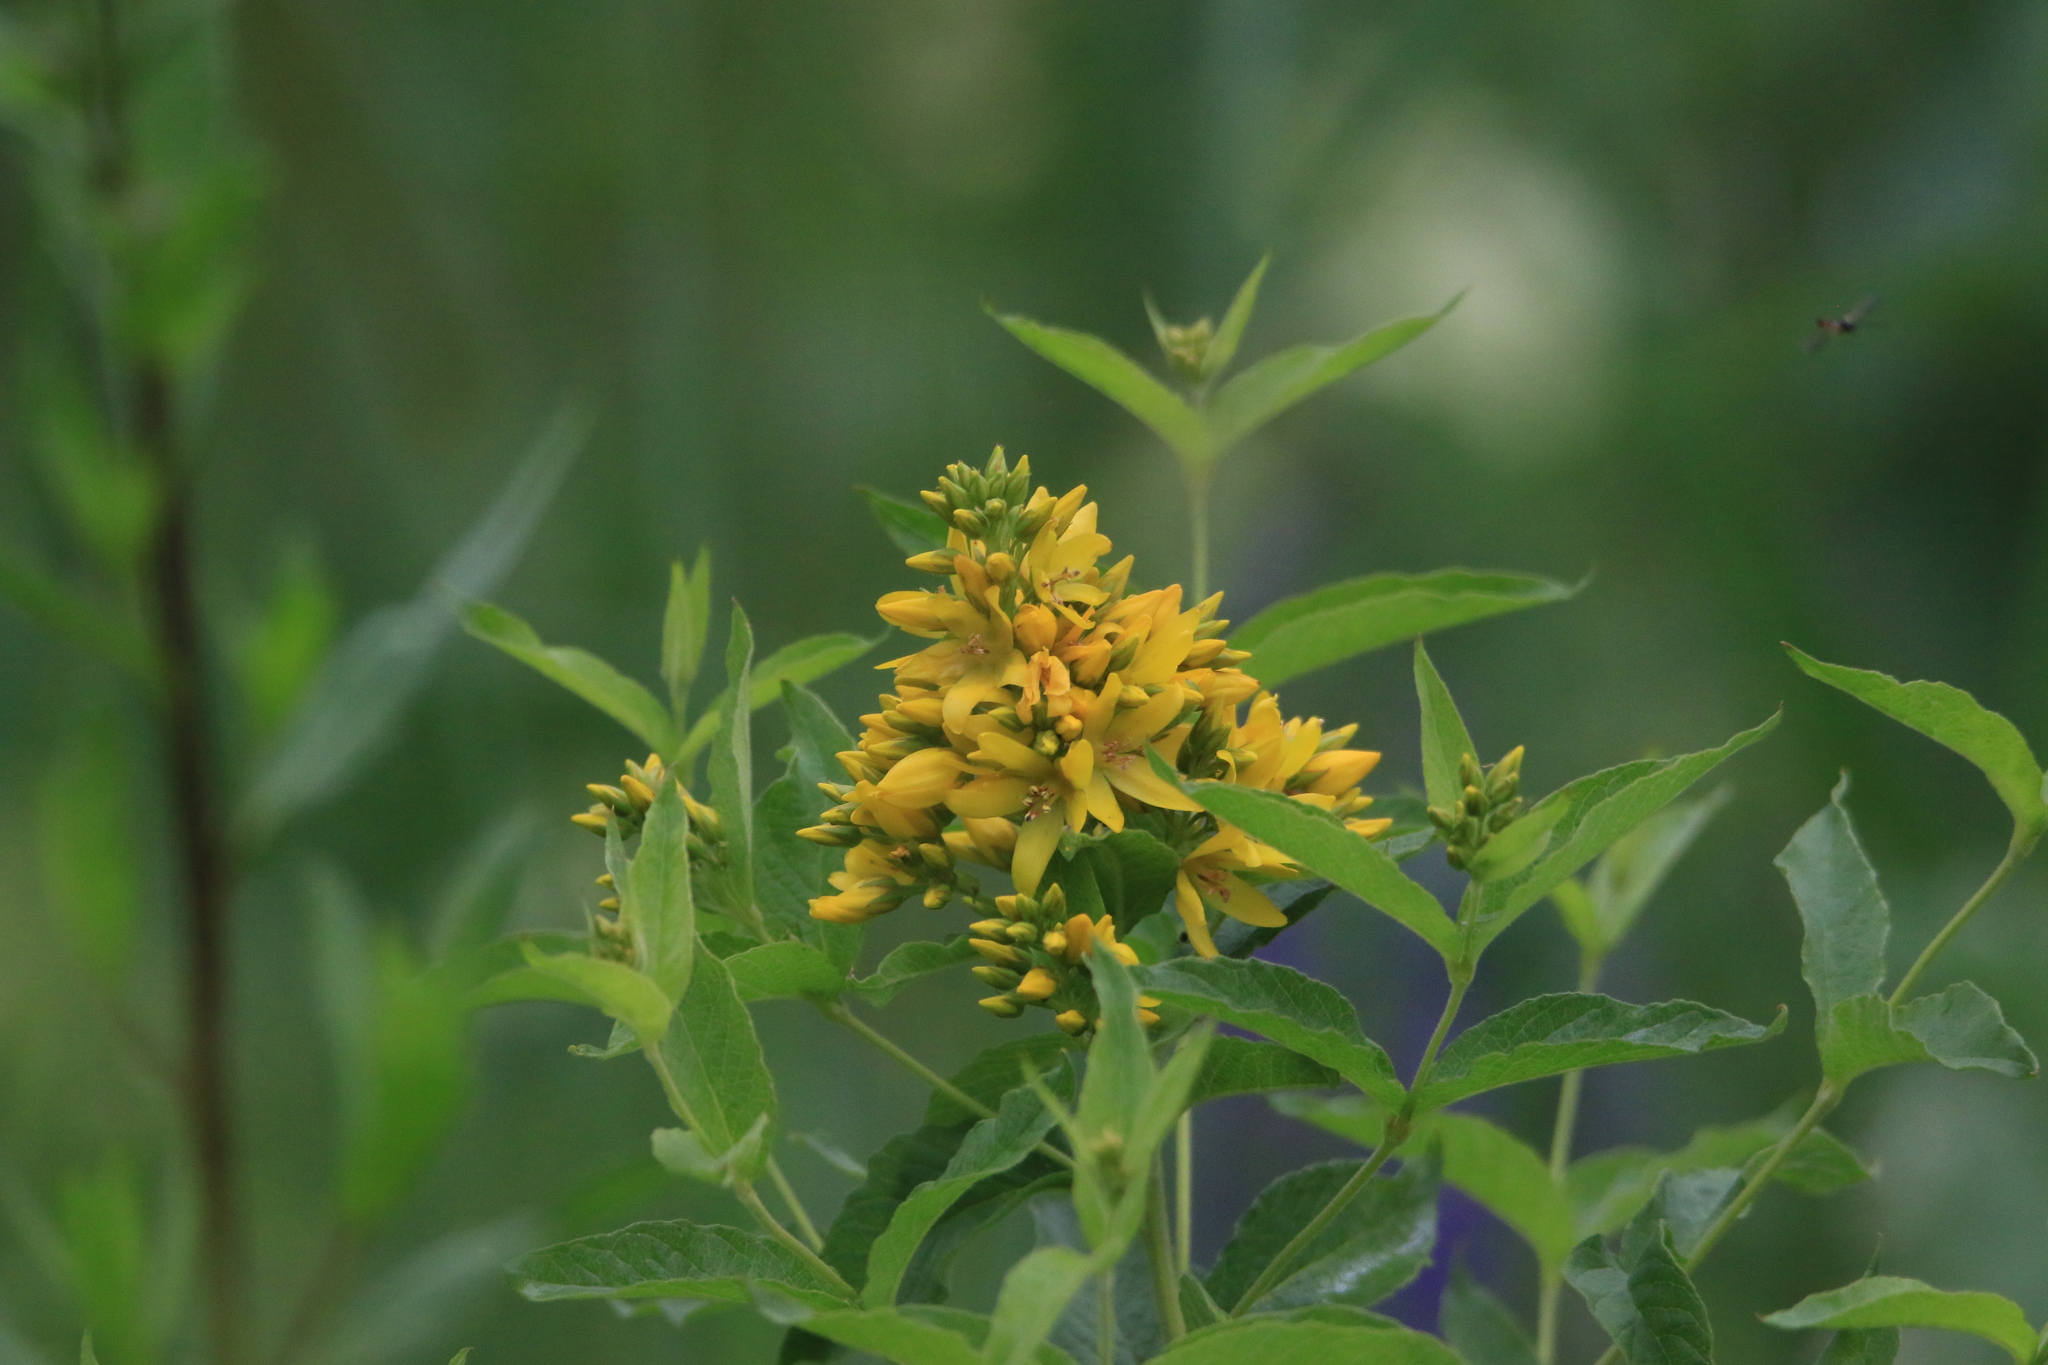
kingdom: Plantae
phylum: Tracheophyta
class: Magnoliopsida
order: Ericales
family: Primulaceae
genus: Lysimachia
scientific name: Lysimachia vulgaris
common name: Yellow loosestrife
